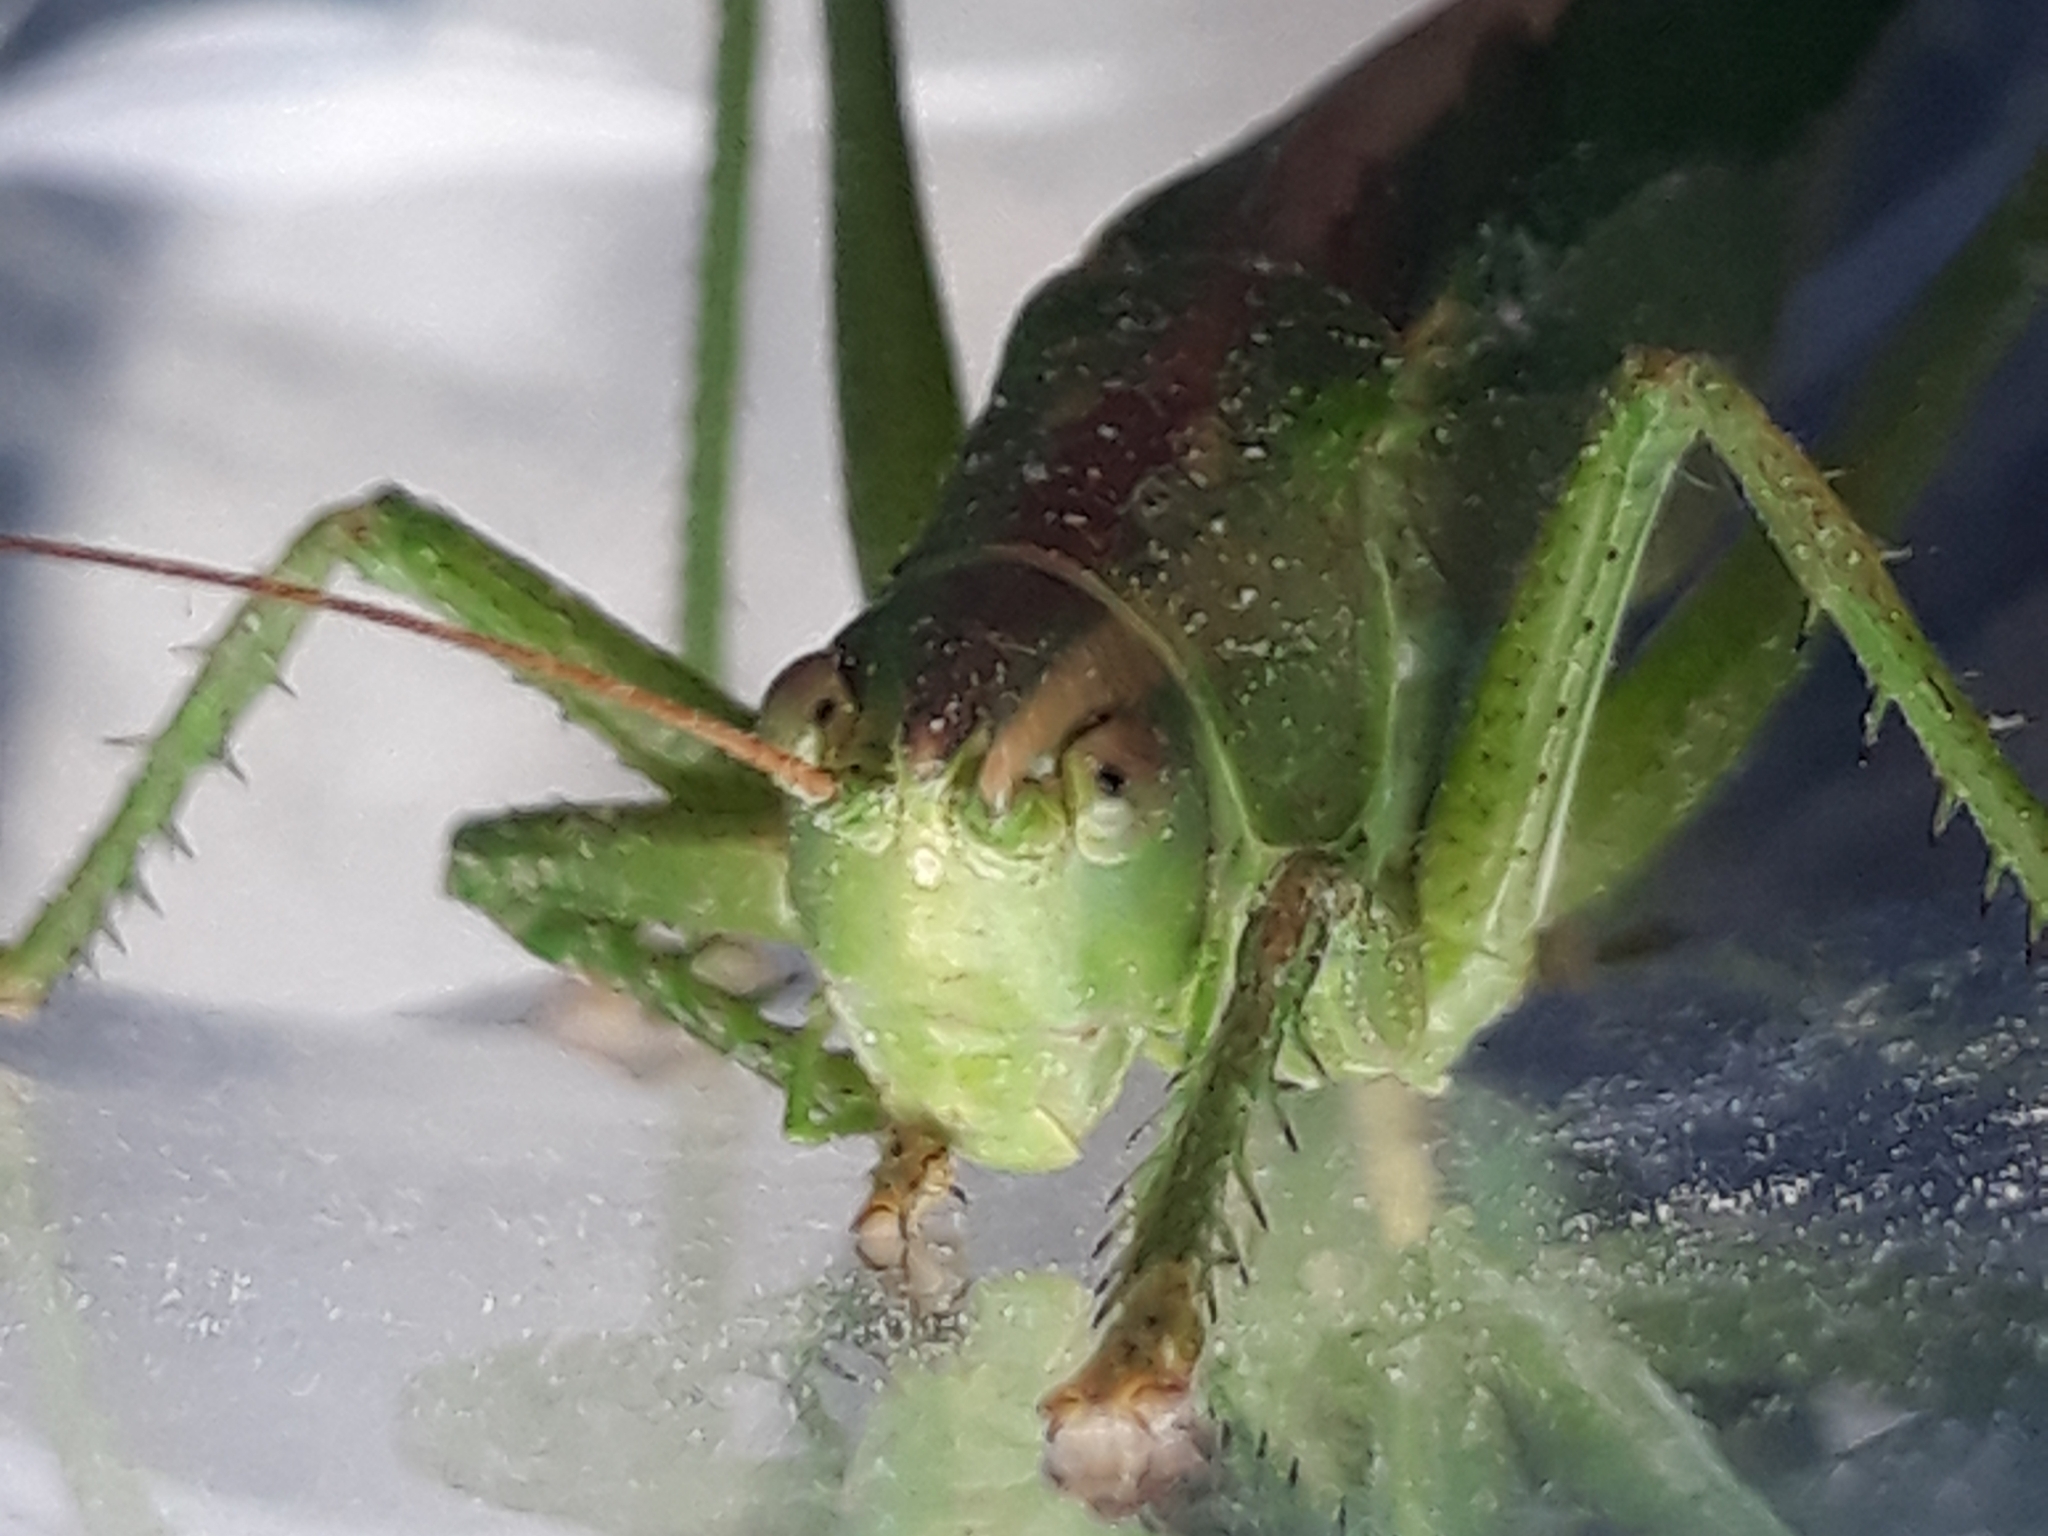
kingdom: Animalia
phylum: Arthropoda
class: Insecta
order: Orthoptera
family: Tettigoniidae
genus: Tettigonia
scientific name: Tettigonia viridissima
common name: Great green bush-cricket
